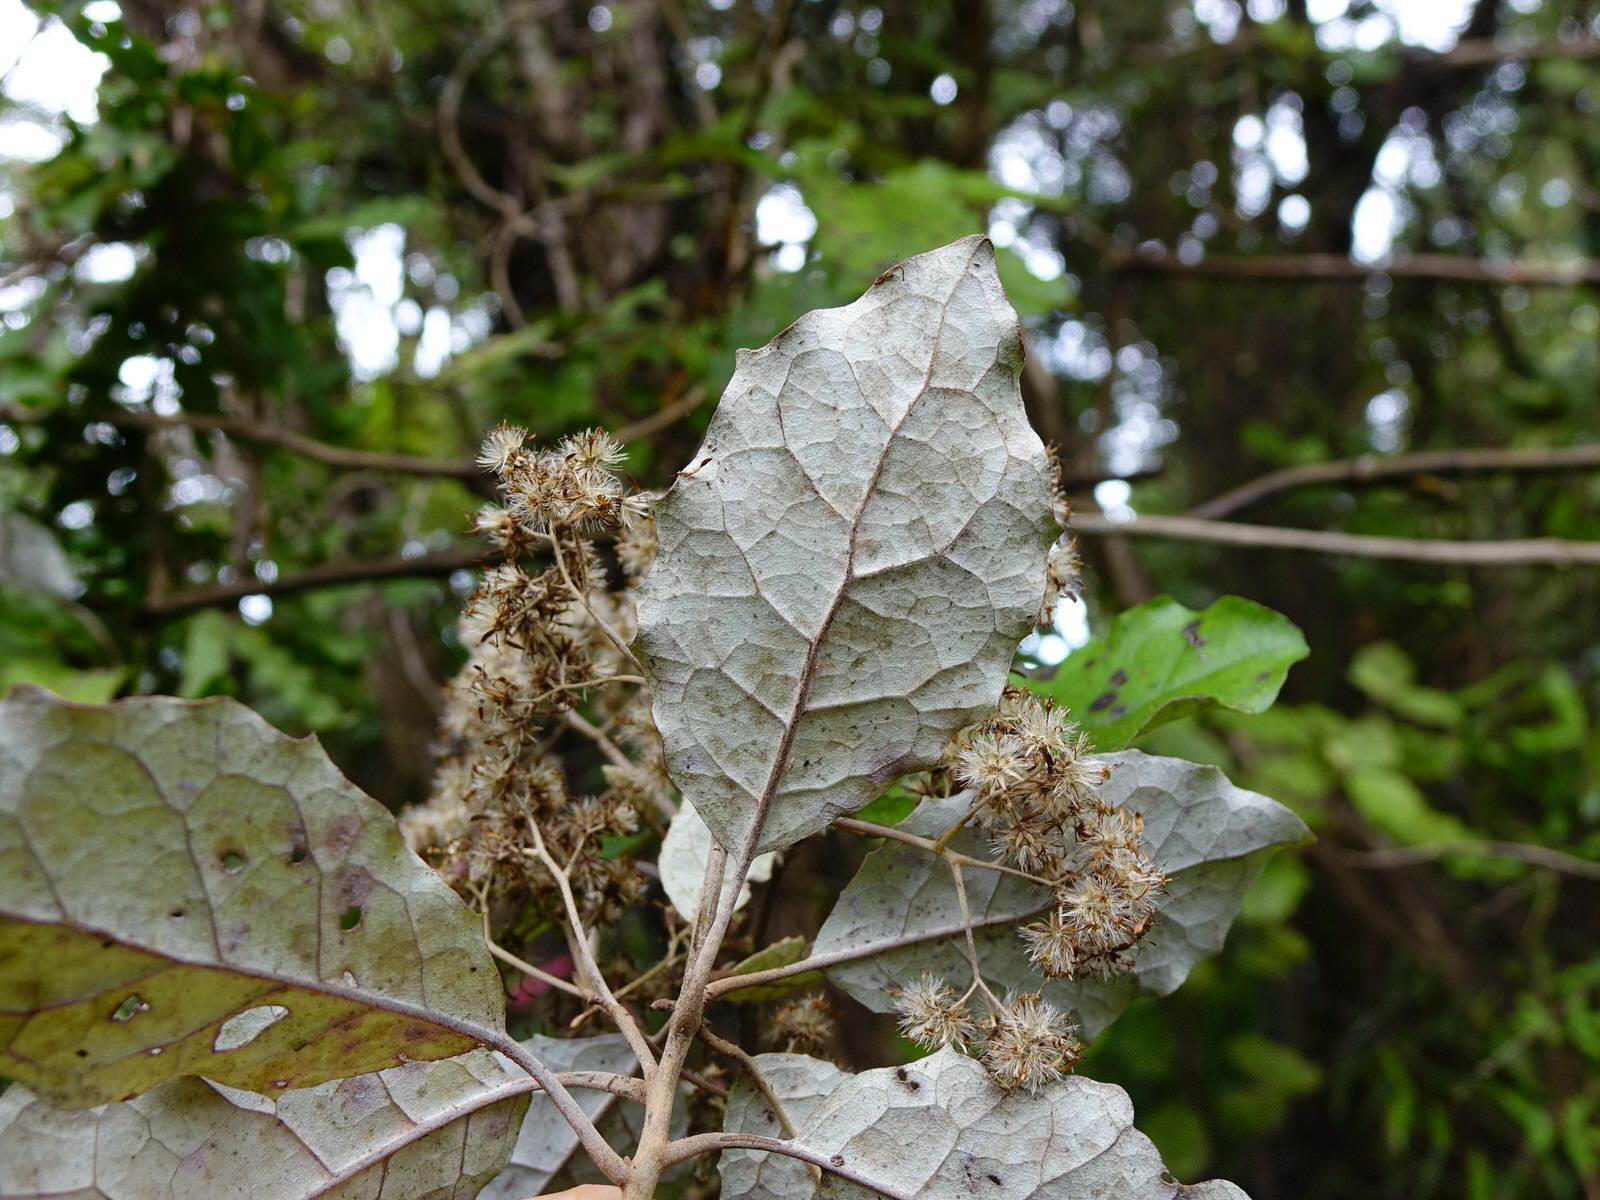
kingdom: Plantae
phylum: Tracheophyta
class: Magnoliopsida
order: Asterales
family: Asteraceae
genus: Olearia
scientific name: Olearia rani
